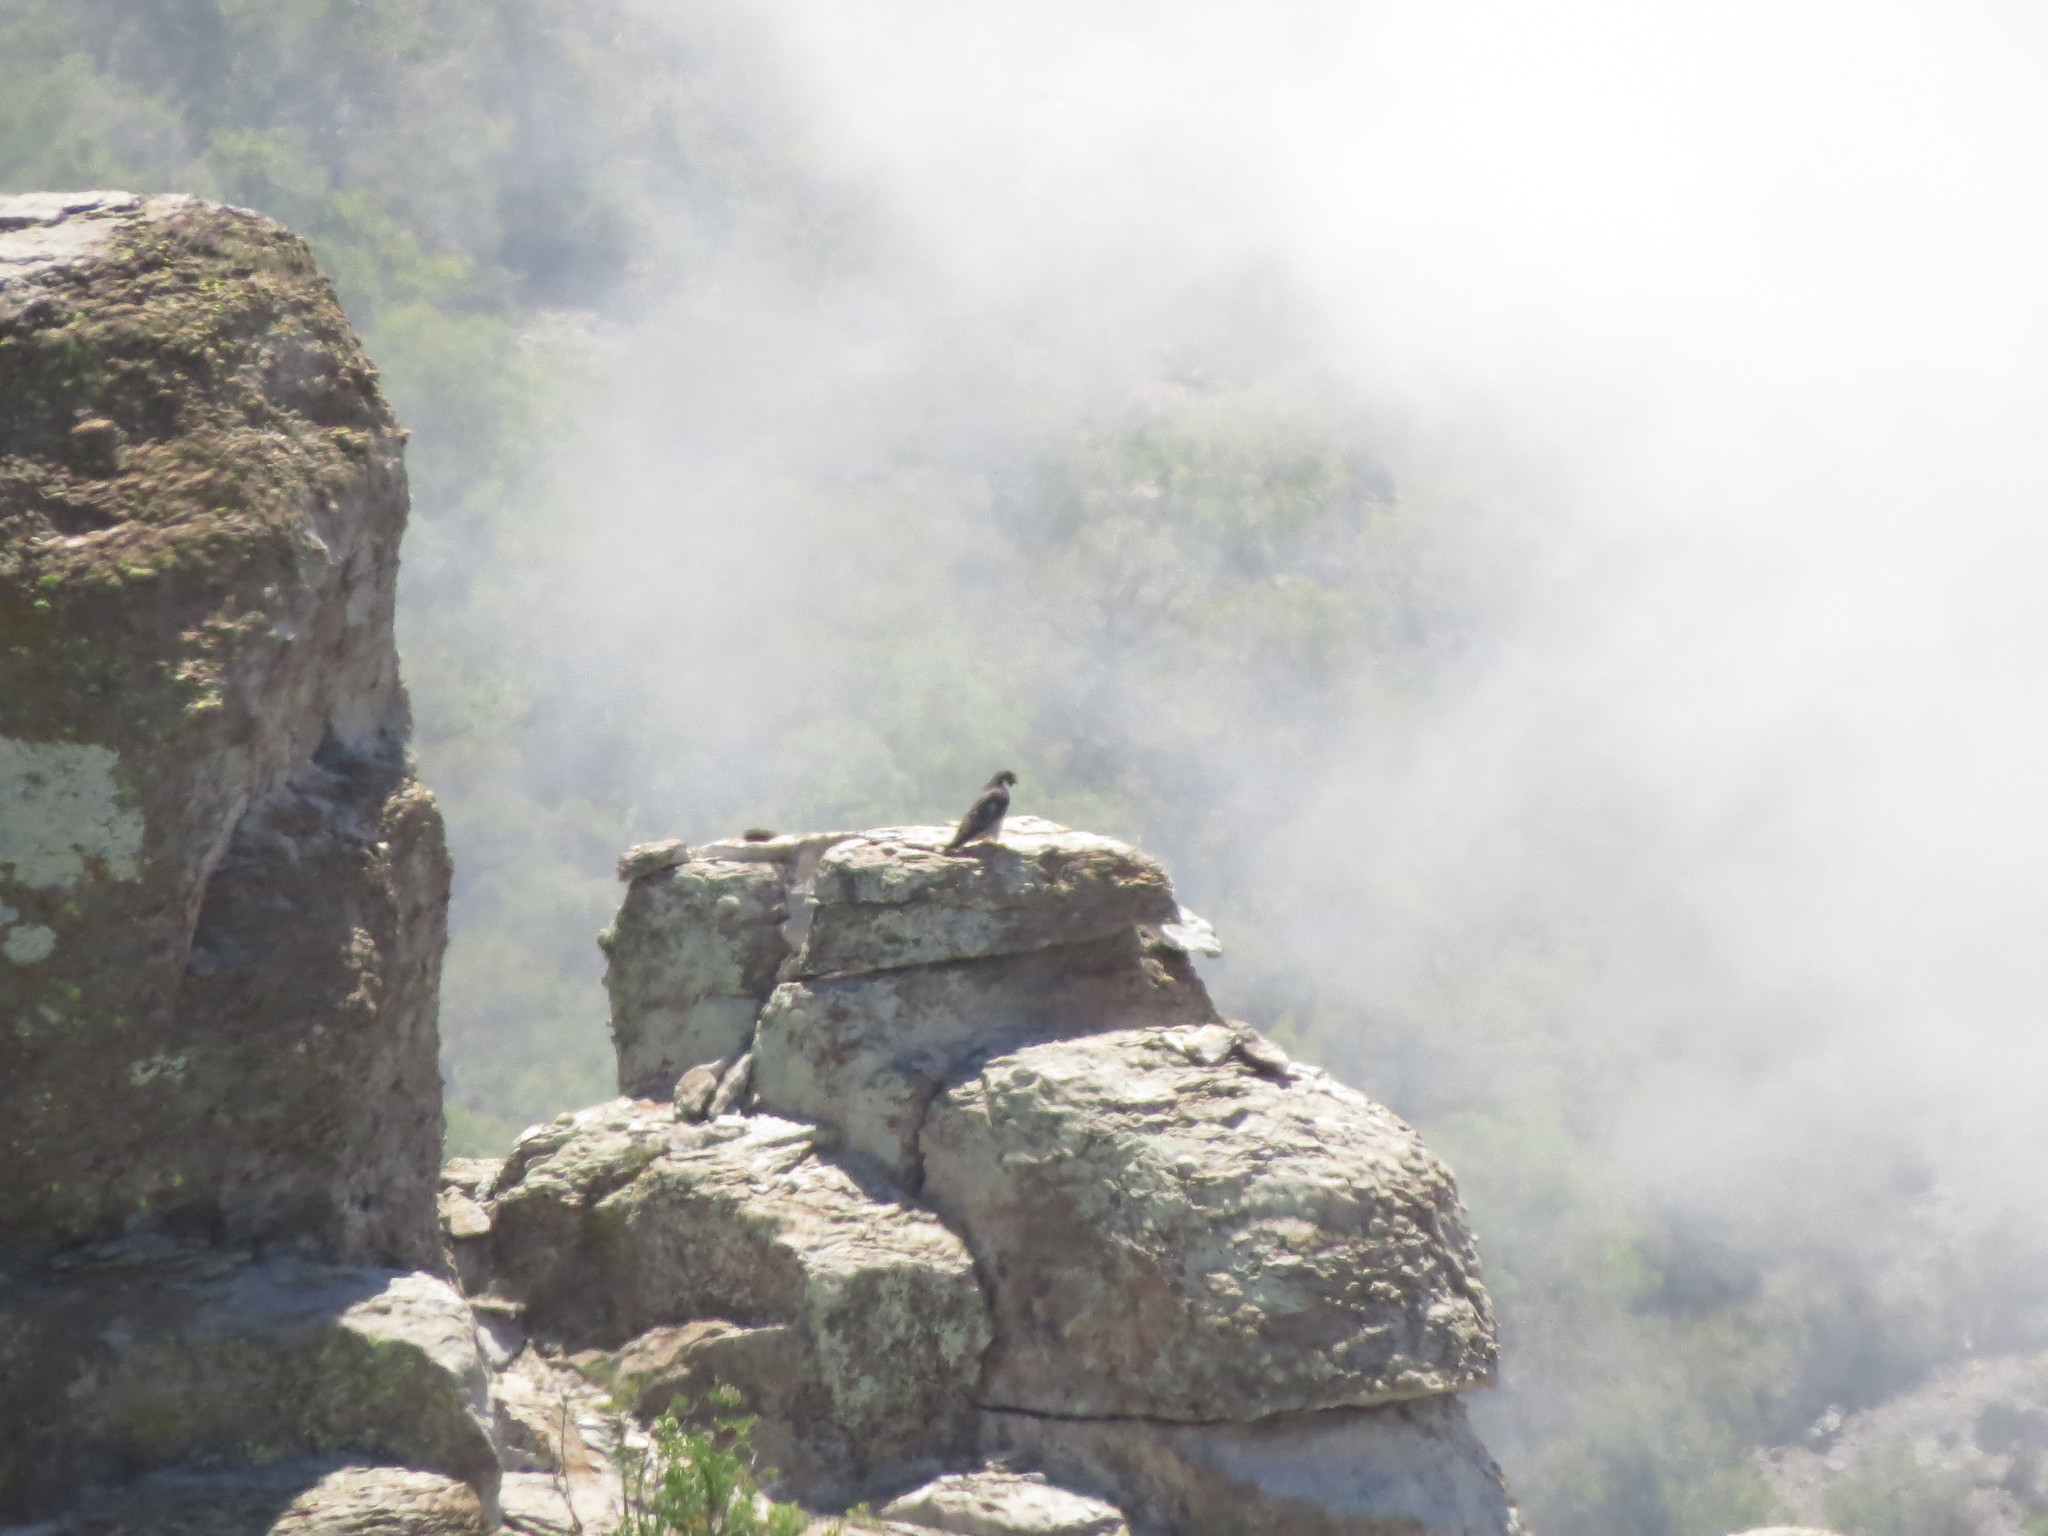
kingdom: Animalia
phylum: Chordata
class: Aves
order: Falconiformes
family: Falconidae
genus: Falco
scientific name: Falco peregrinus
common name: Peregrine falcon
